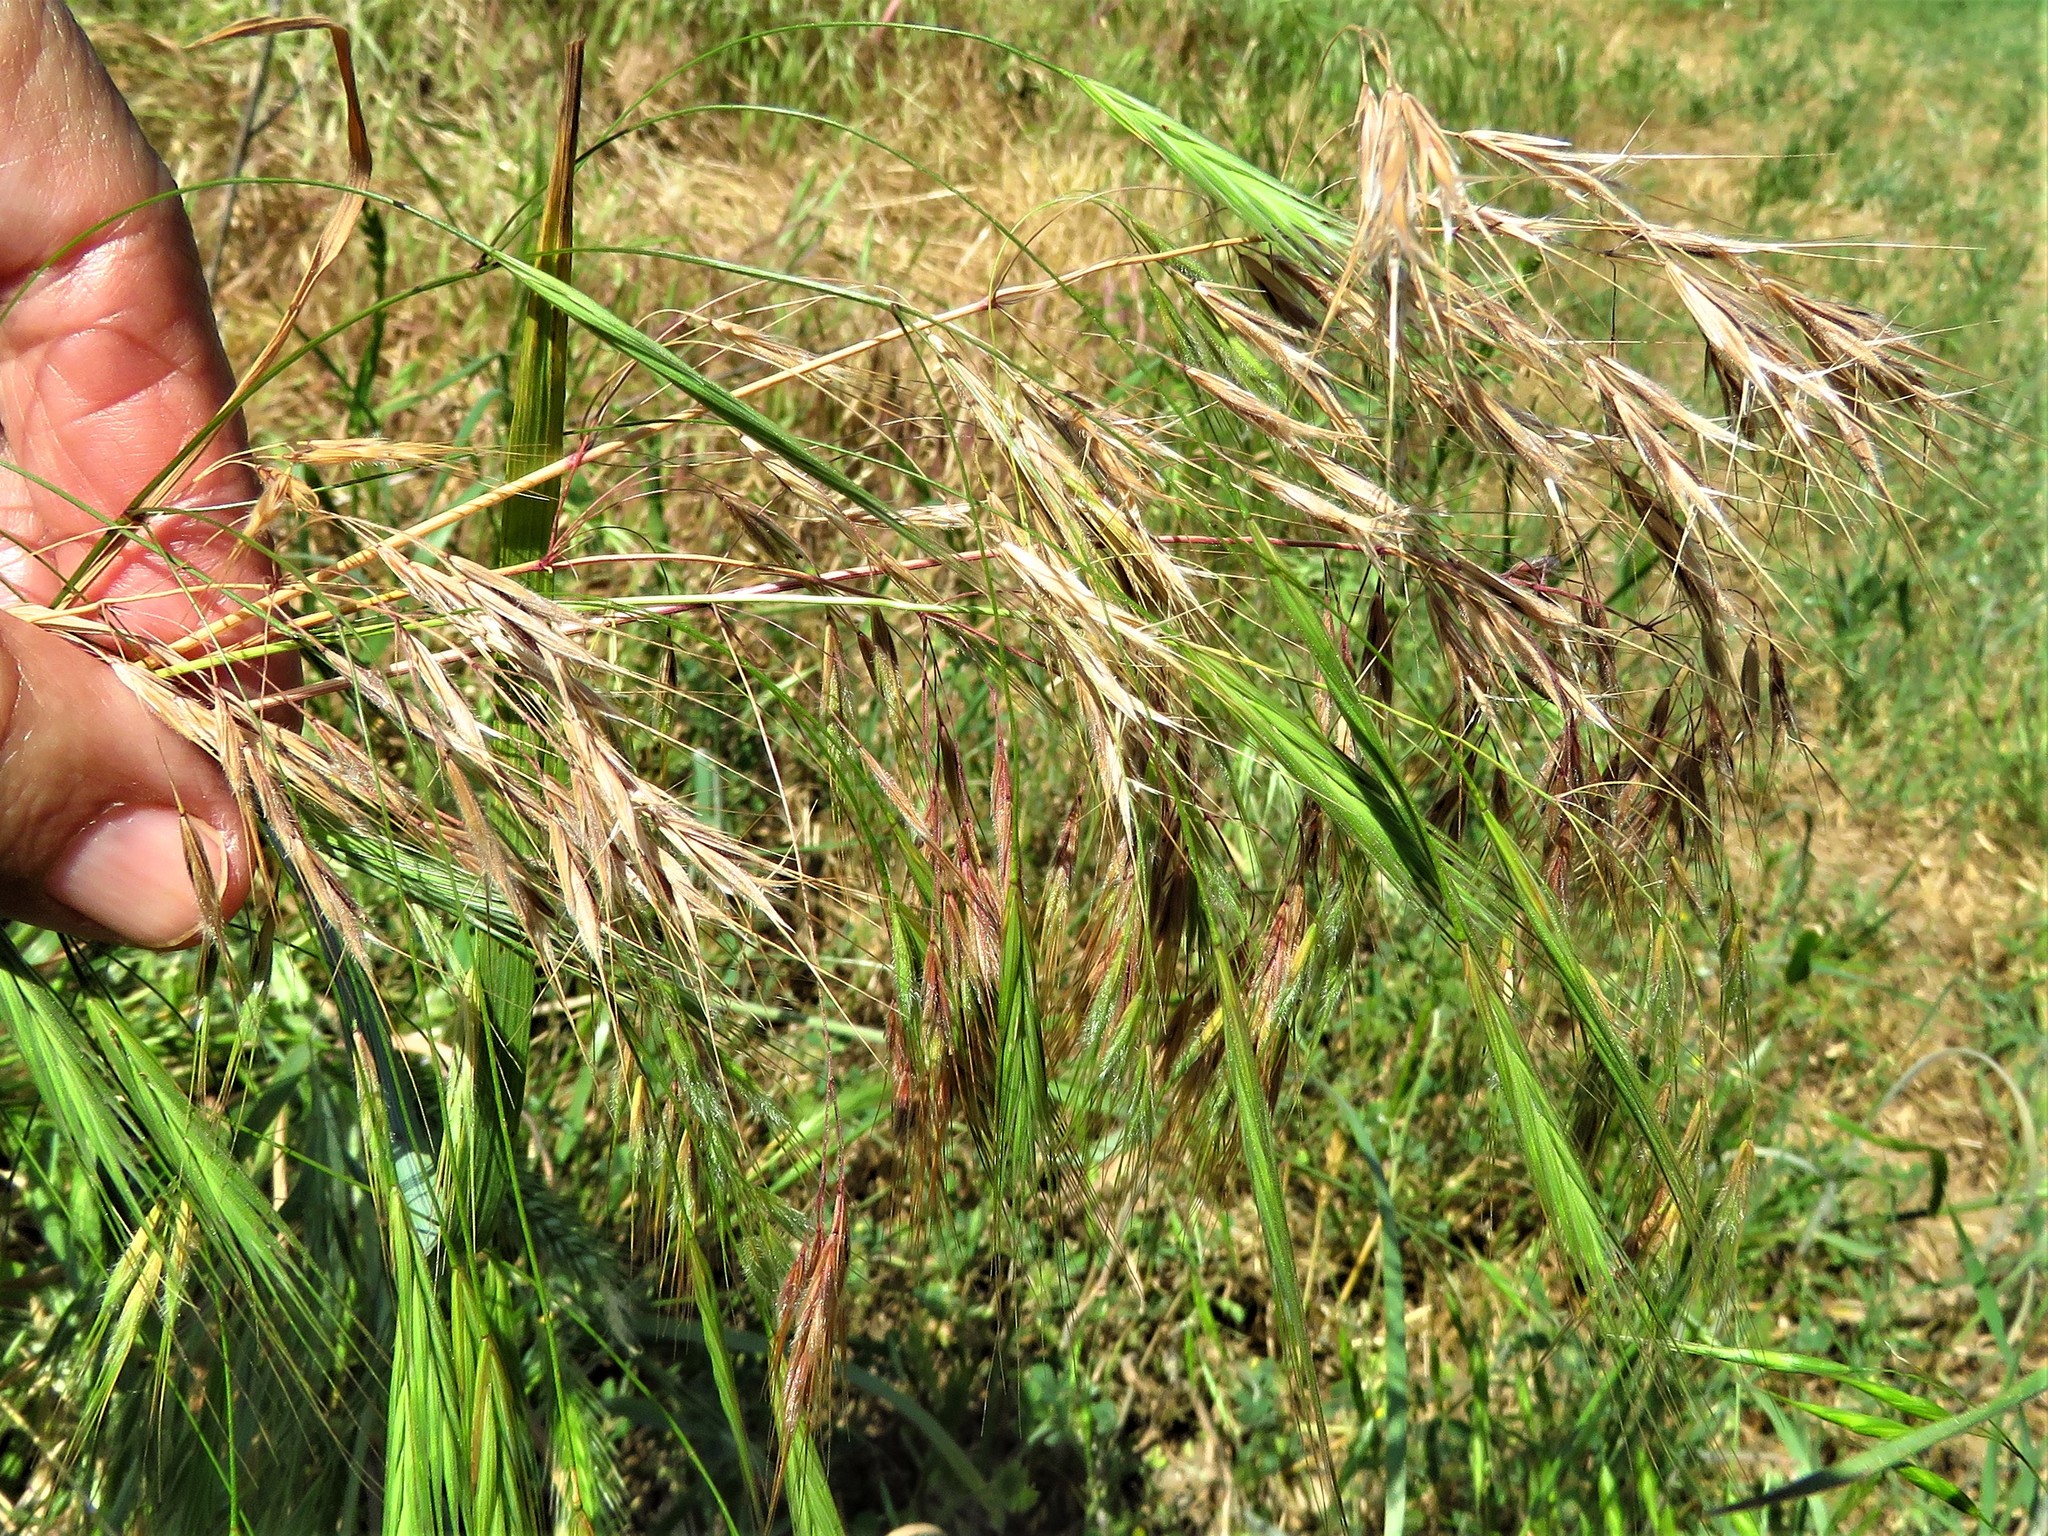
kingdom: Plantae
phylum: Tracheophyta
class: Liliopsida
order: Poales
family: Poaceae
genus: Bromus
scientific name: Bromus tectorum
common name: Cheatgrass
